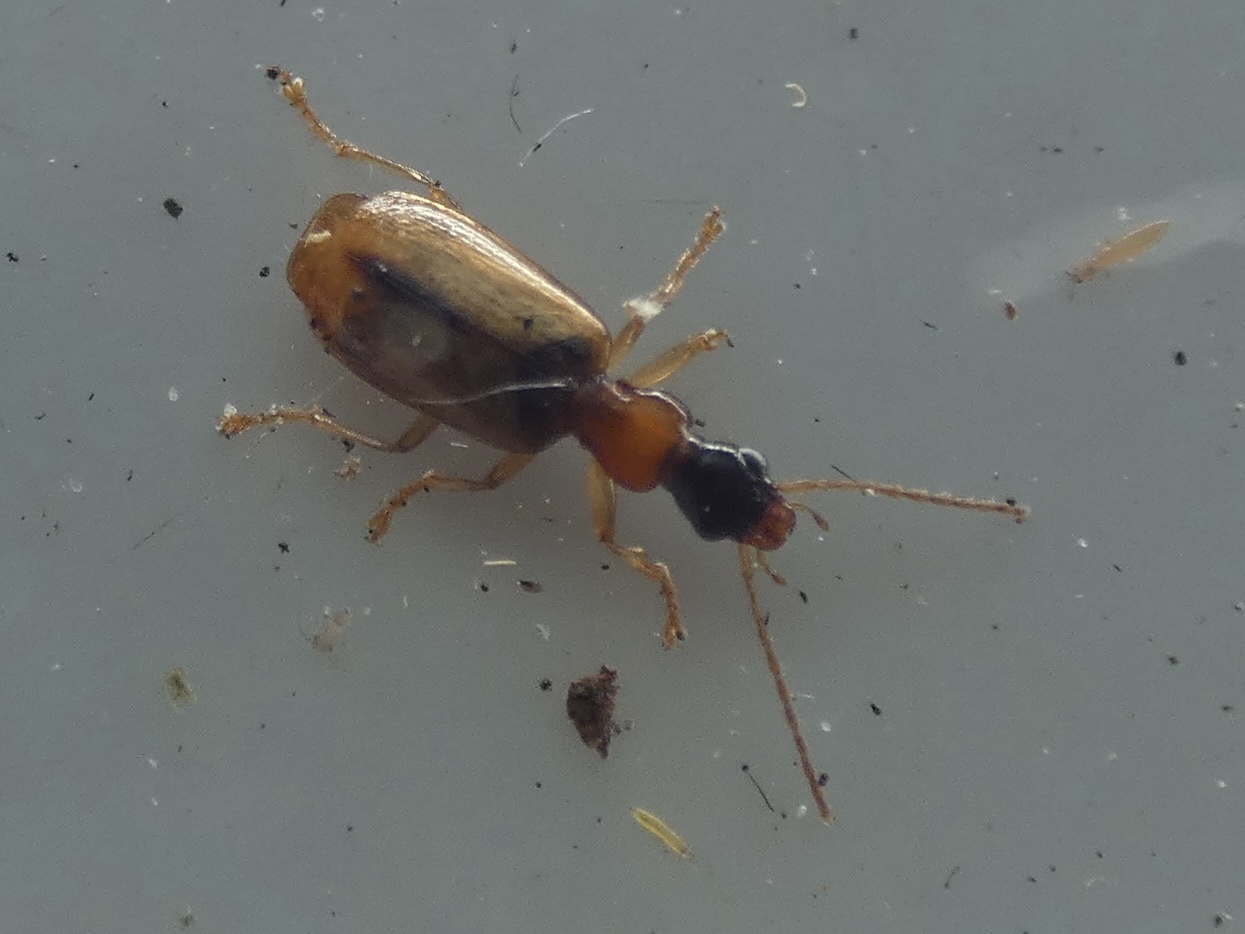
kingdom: Animalia
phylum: Arthropoda
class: Insecta
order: Coleoptera
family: Carabidae
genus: Demetrias
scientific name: Demetrias atricapillus
